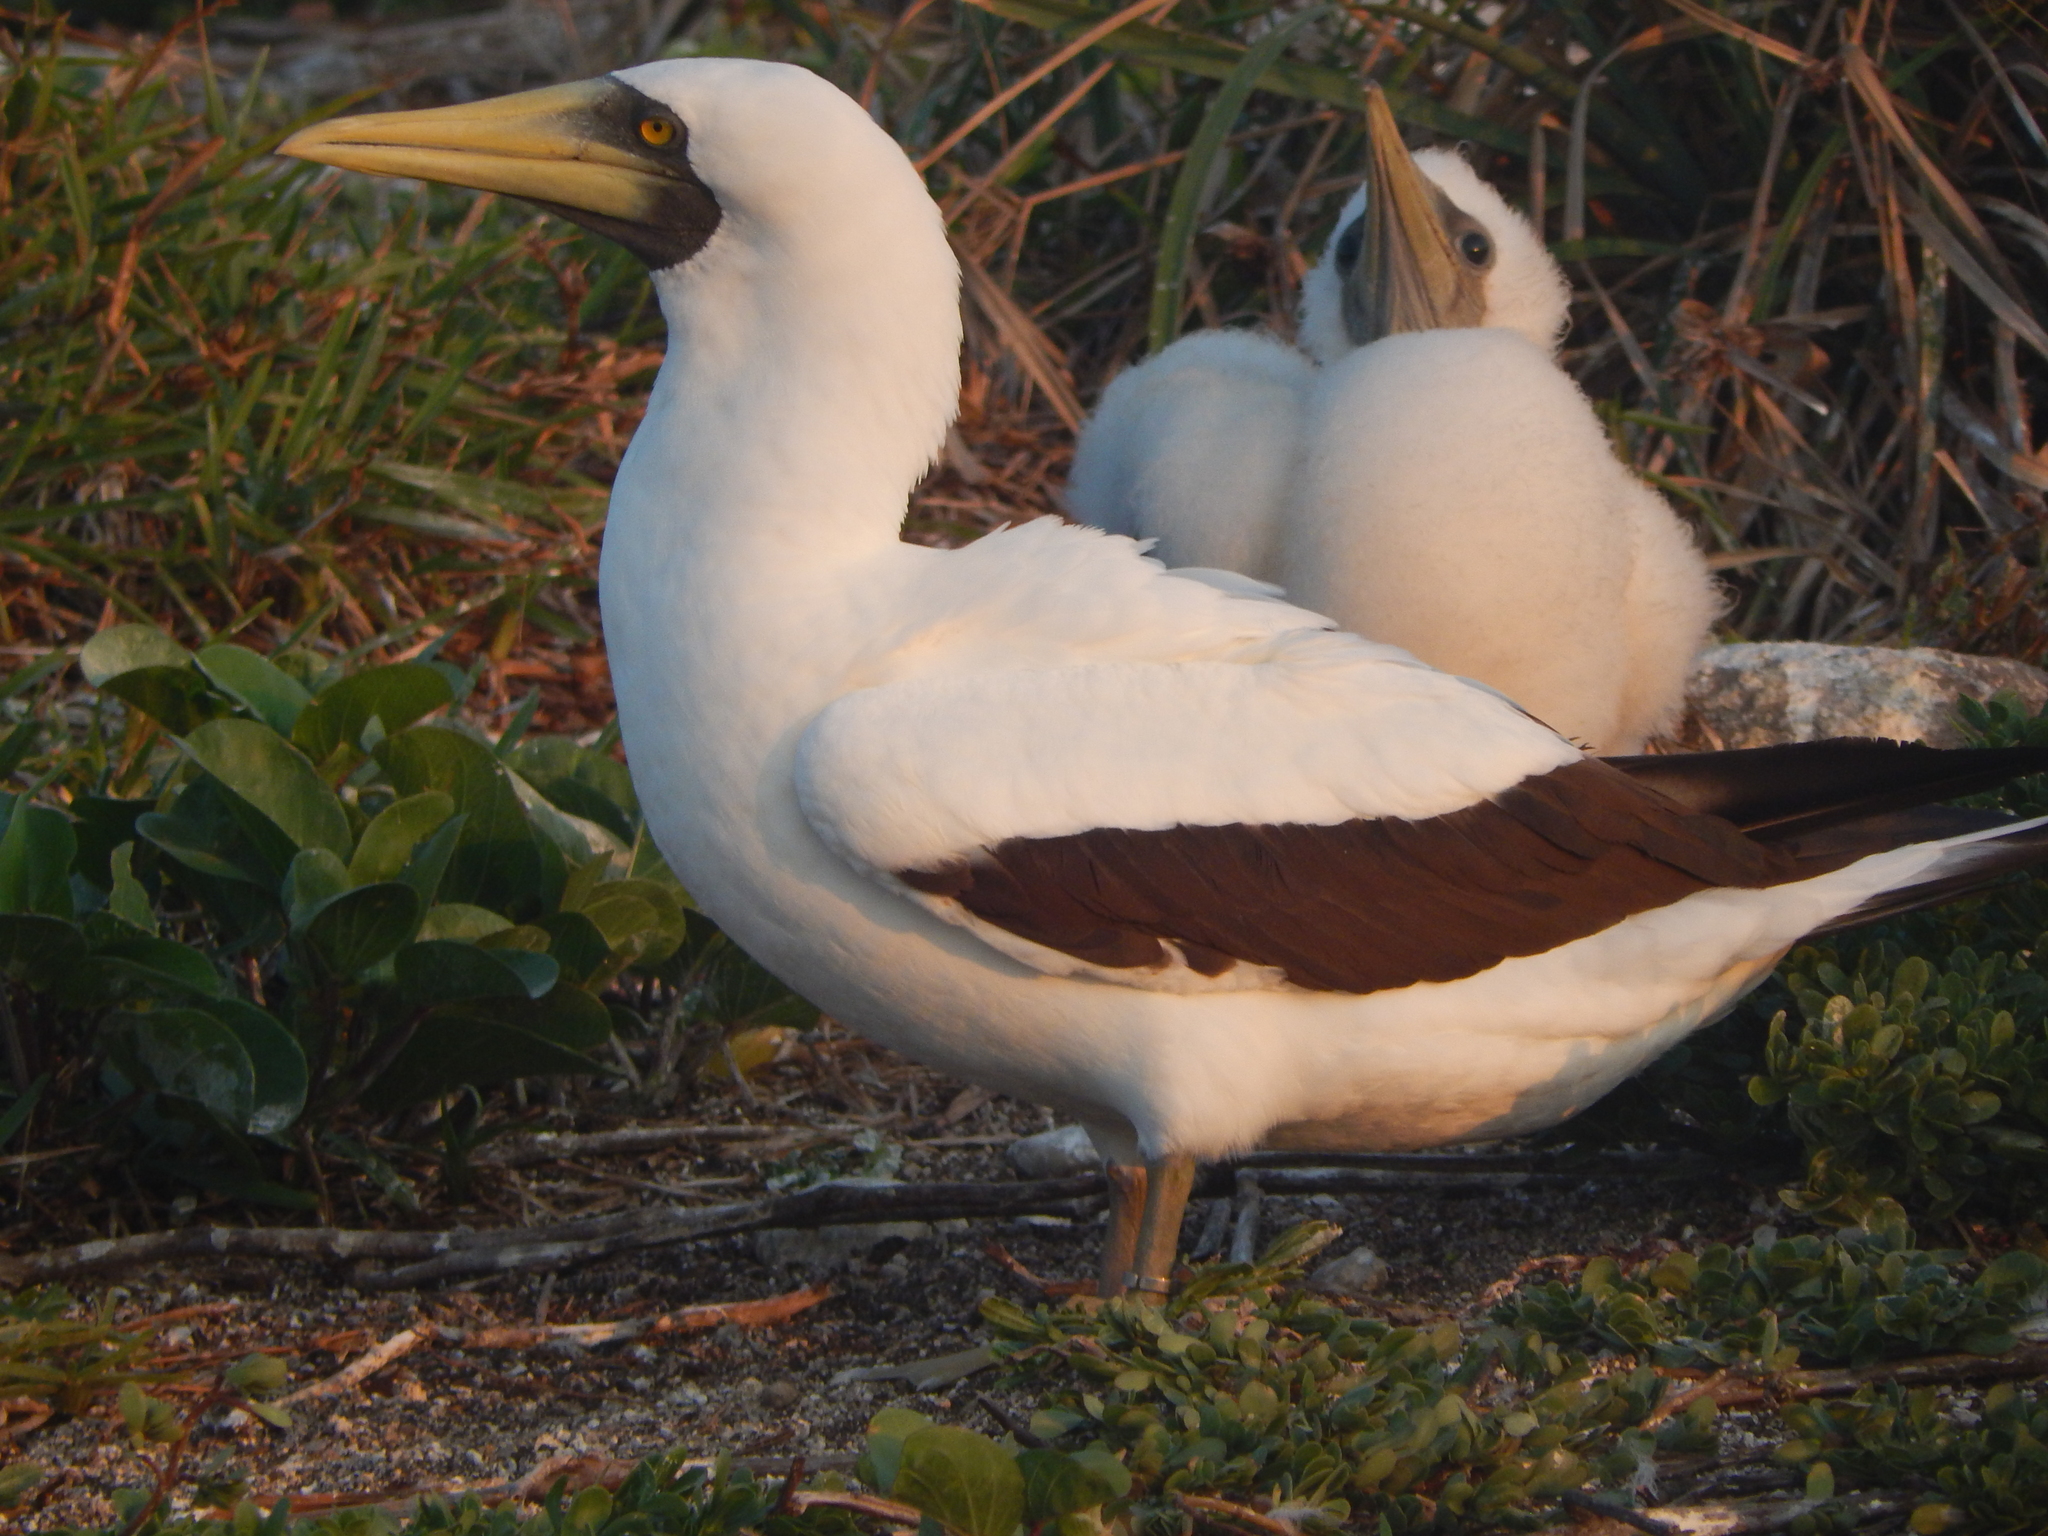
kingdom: Animalia
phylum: Chordata
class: Aves
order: Suliformes
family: Sulidae
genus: Sula
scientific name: Sula dactylatra
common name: Masked booby
